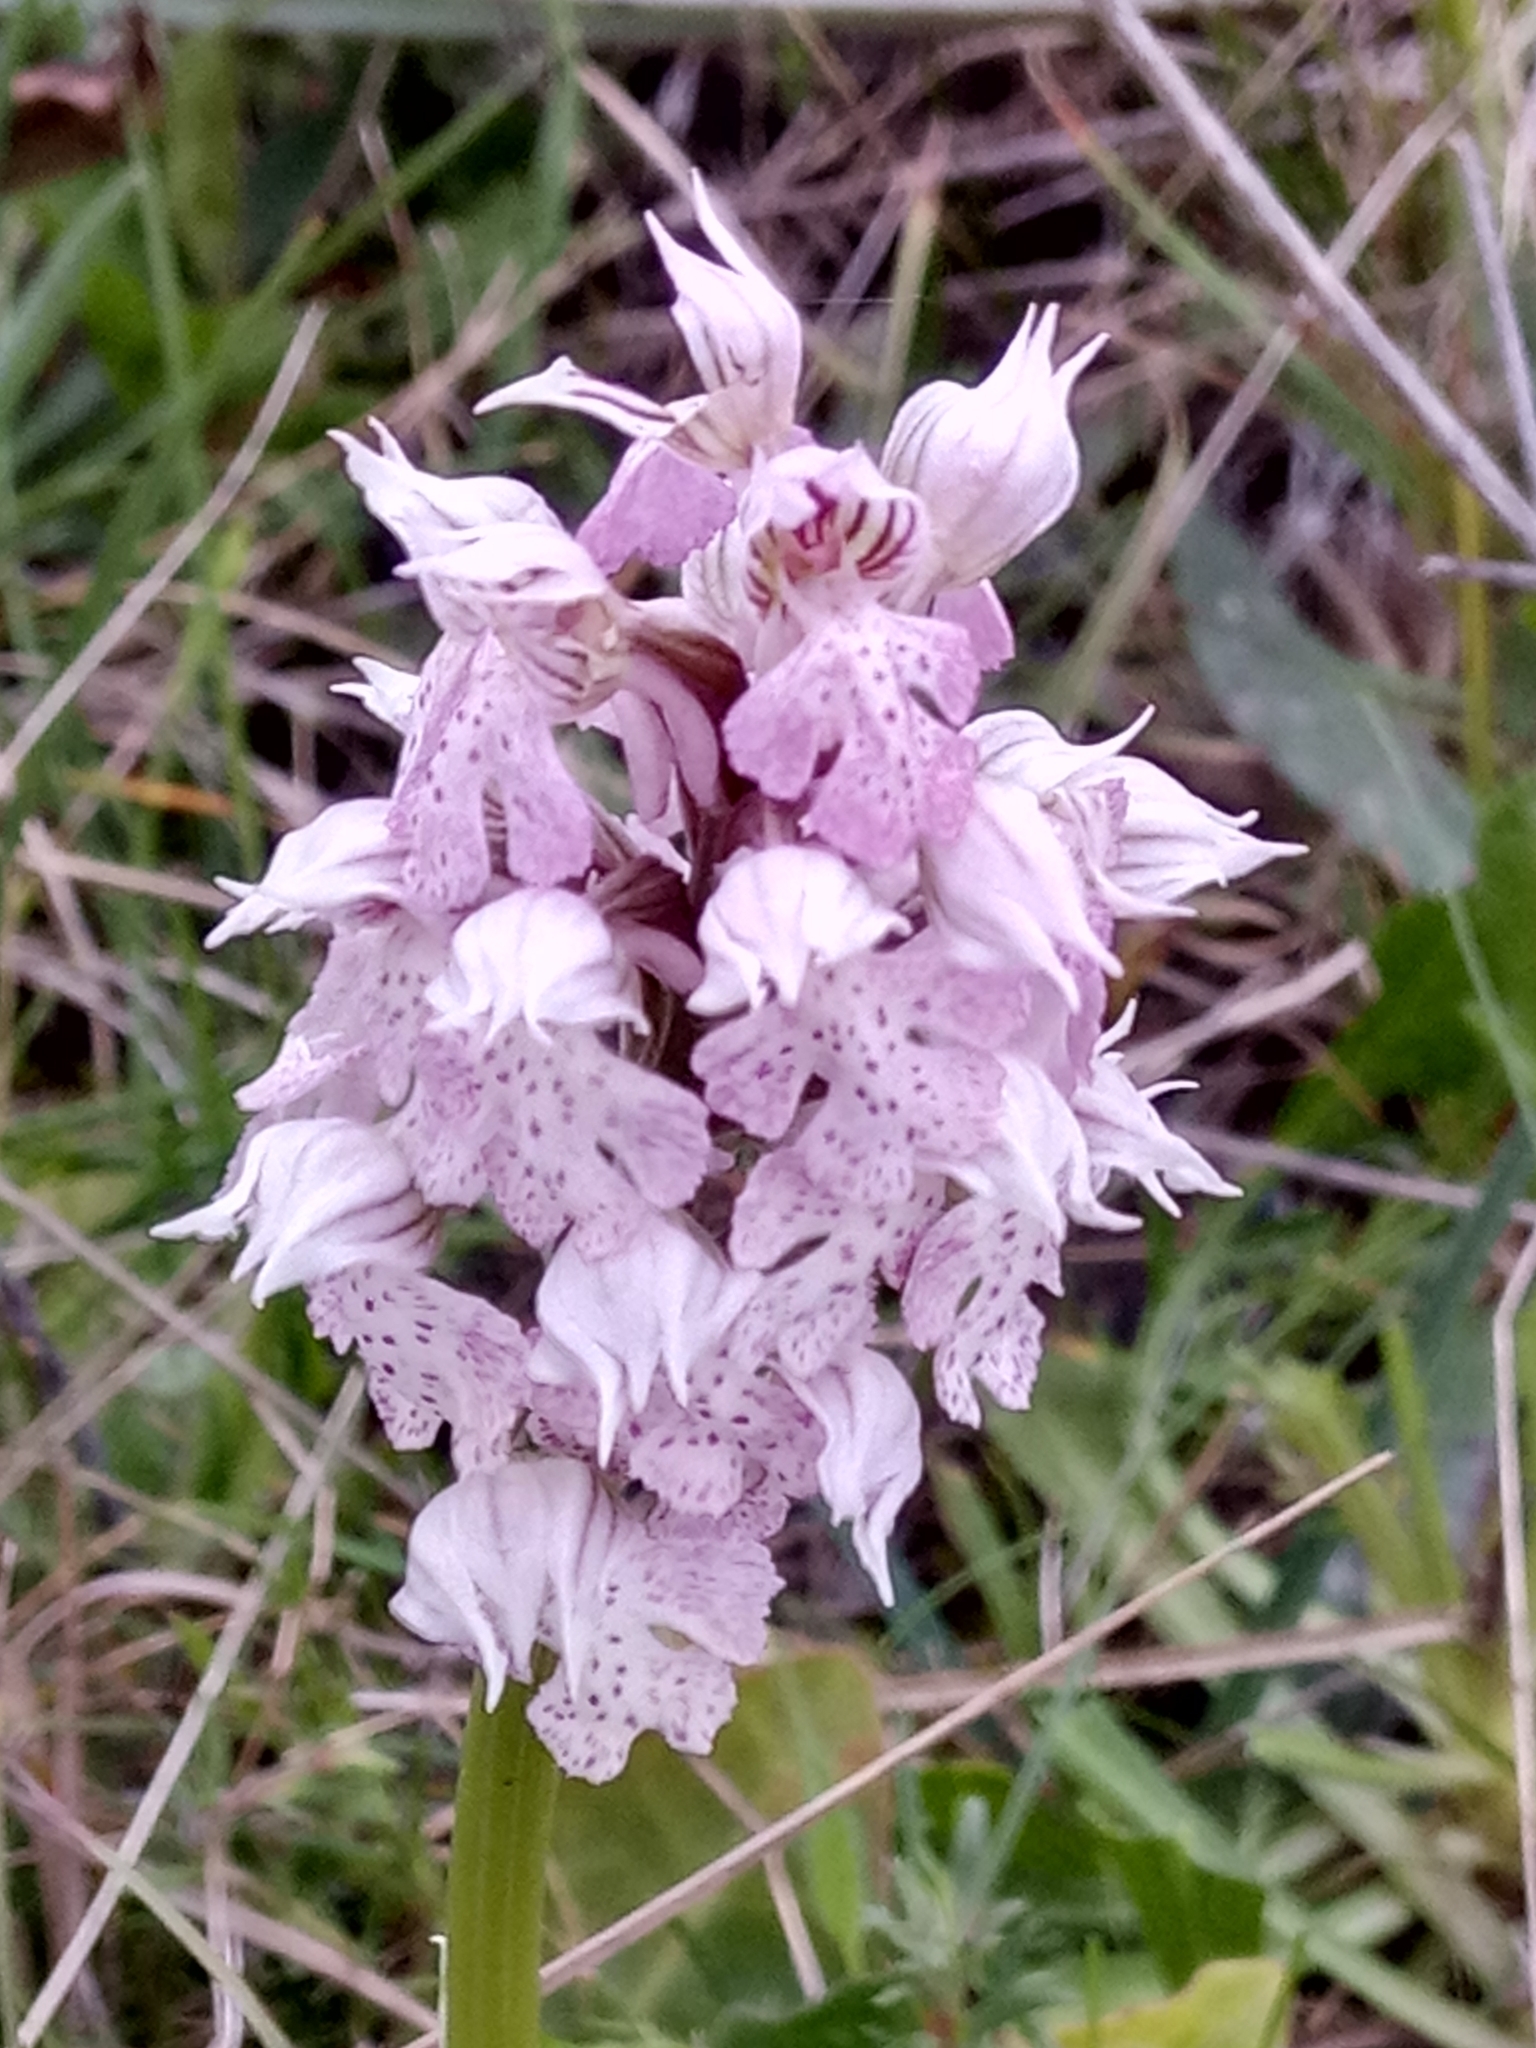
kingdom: Plantae
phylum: Tracheophyta
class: Liliopsida
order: Asparagales
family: Orchidaceae
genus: Neotinea
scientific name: Neotinea lactea
